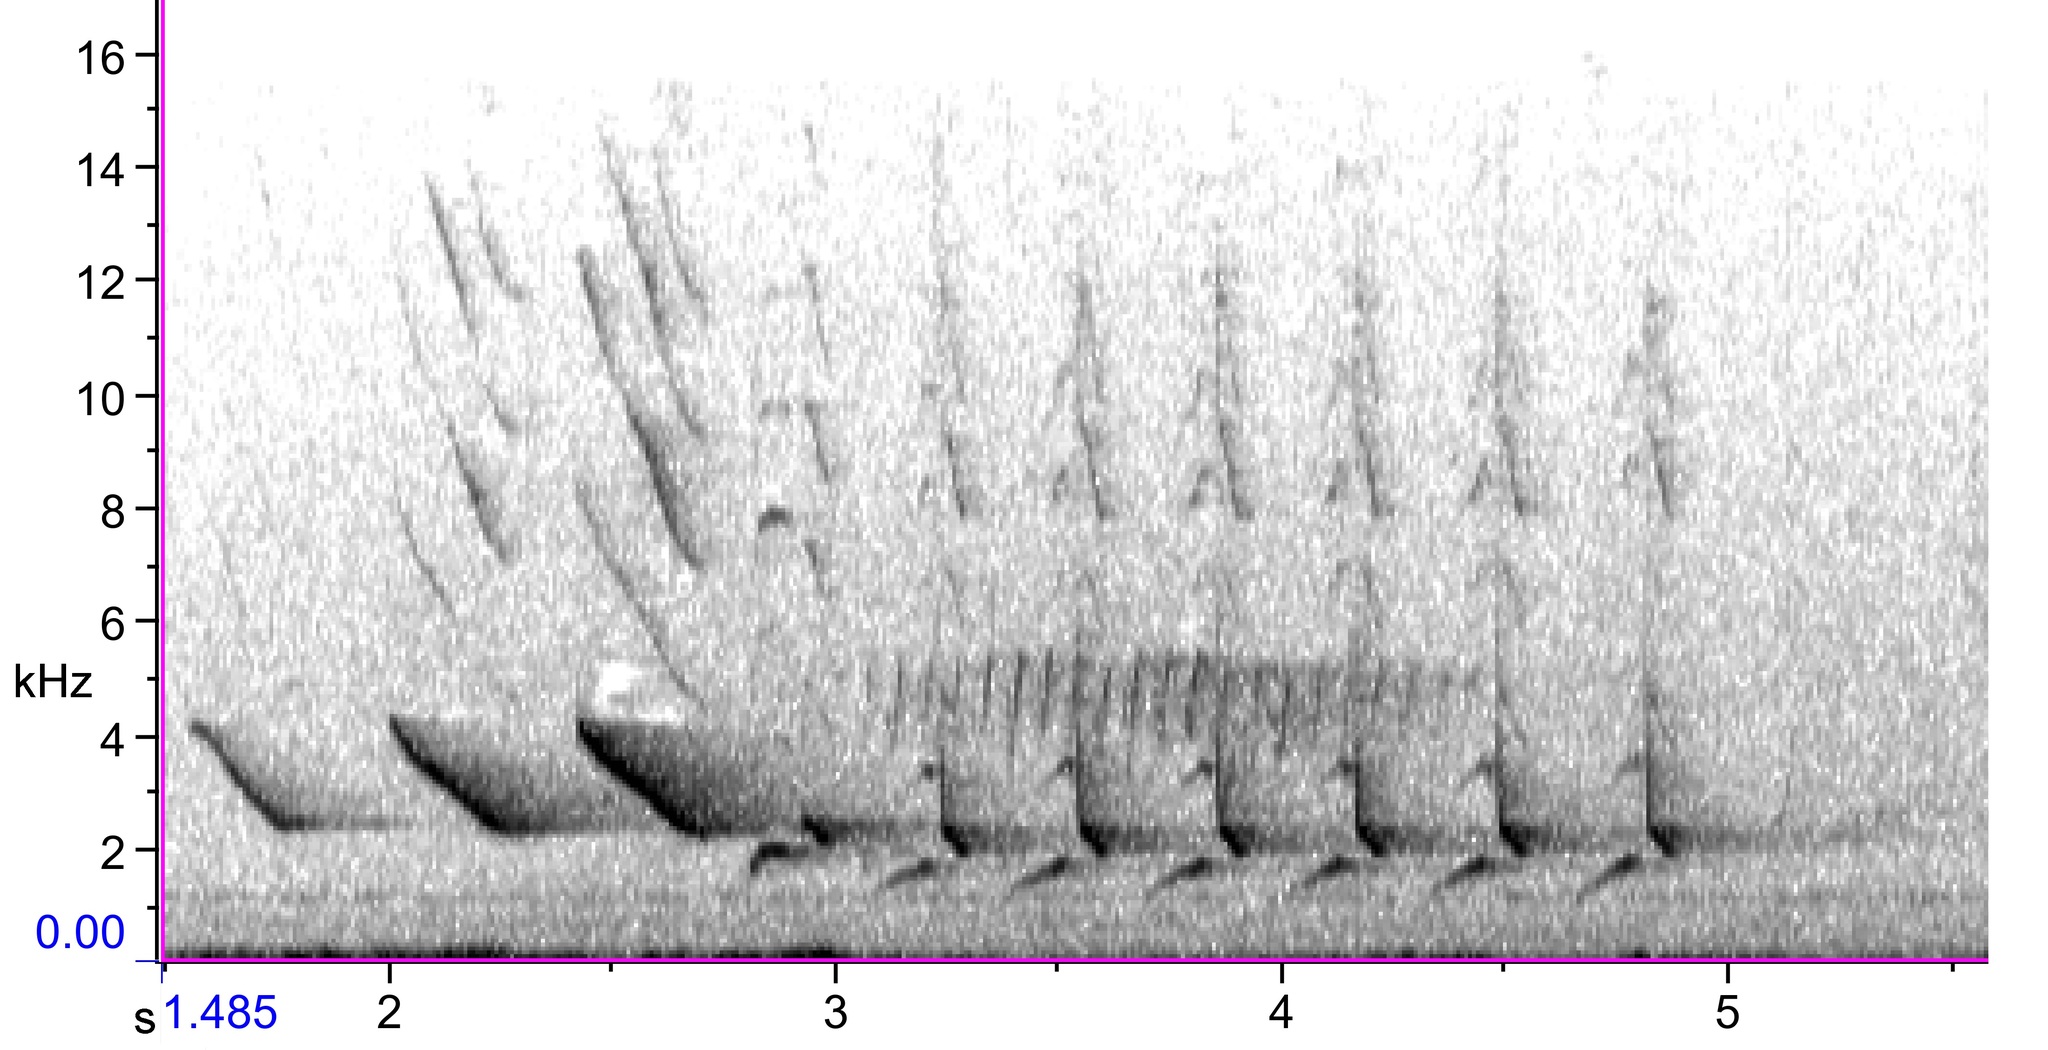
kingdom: Animalia
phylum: Chordata
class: Aves
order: Passeriformes
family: Cardinalidae
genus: Cardinalis
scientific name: Cardinalis cardinalis
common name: Northern cardinal
